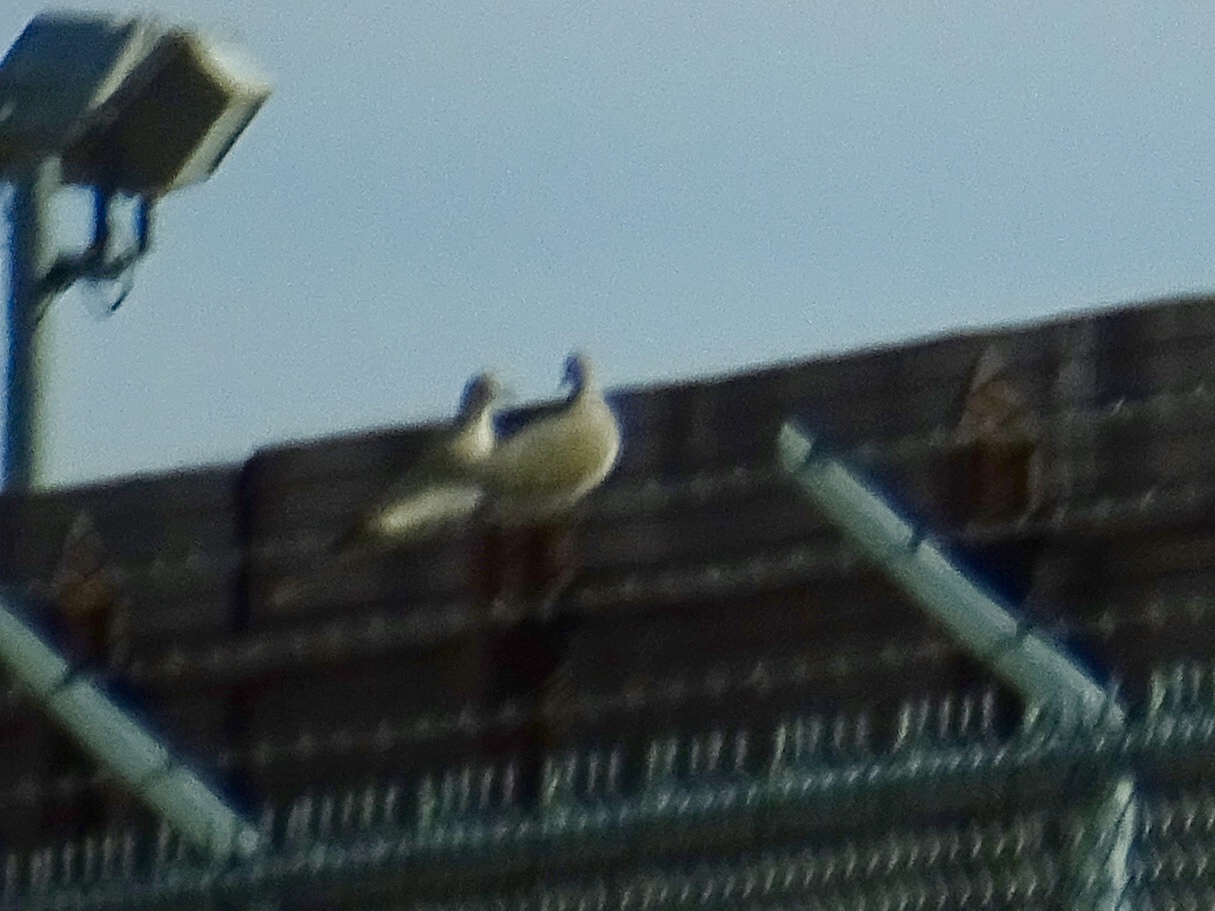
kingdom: Animalia
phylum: Chordata
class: Aves
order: Columbiformes
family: Columbidae
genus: Streptopelia
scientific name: Streptopelia decaocto
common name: Eurasian collared dove
